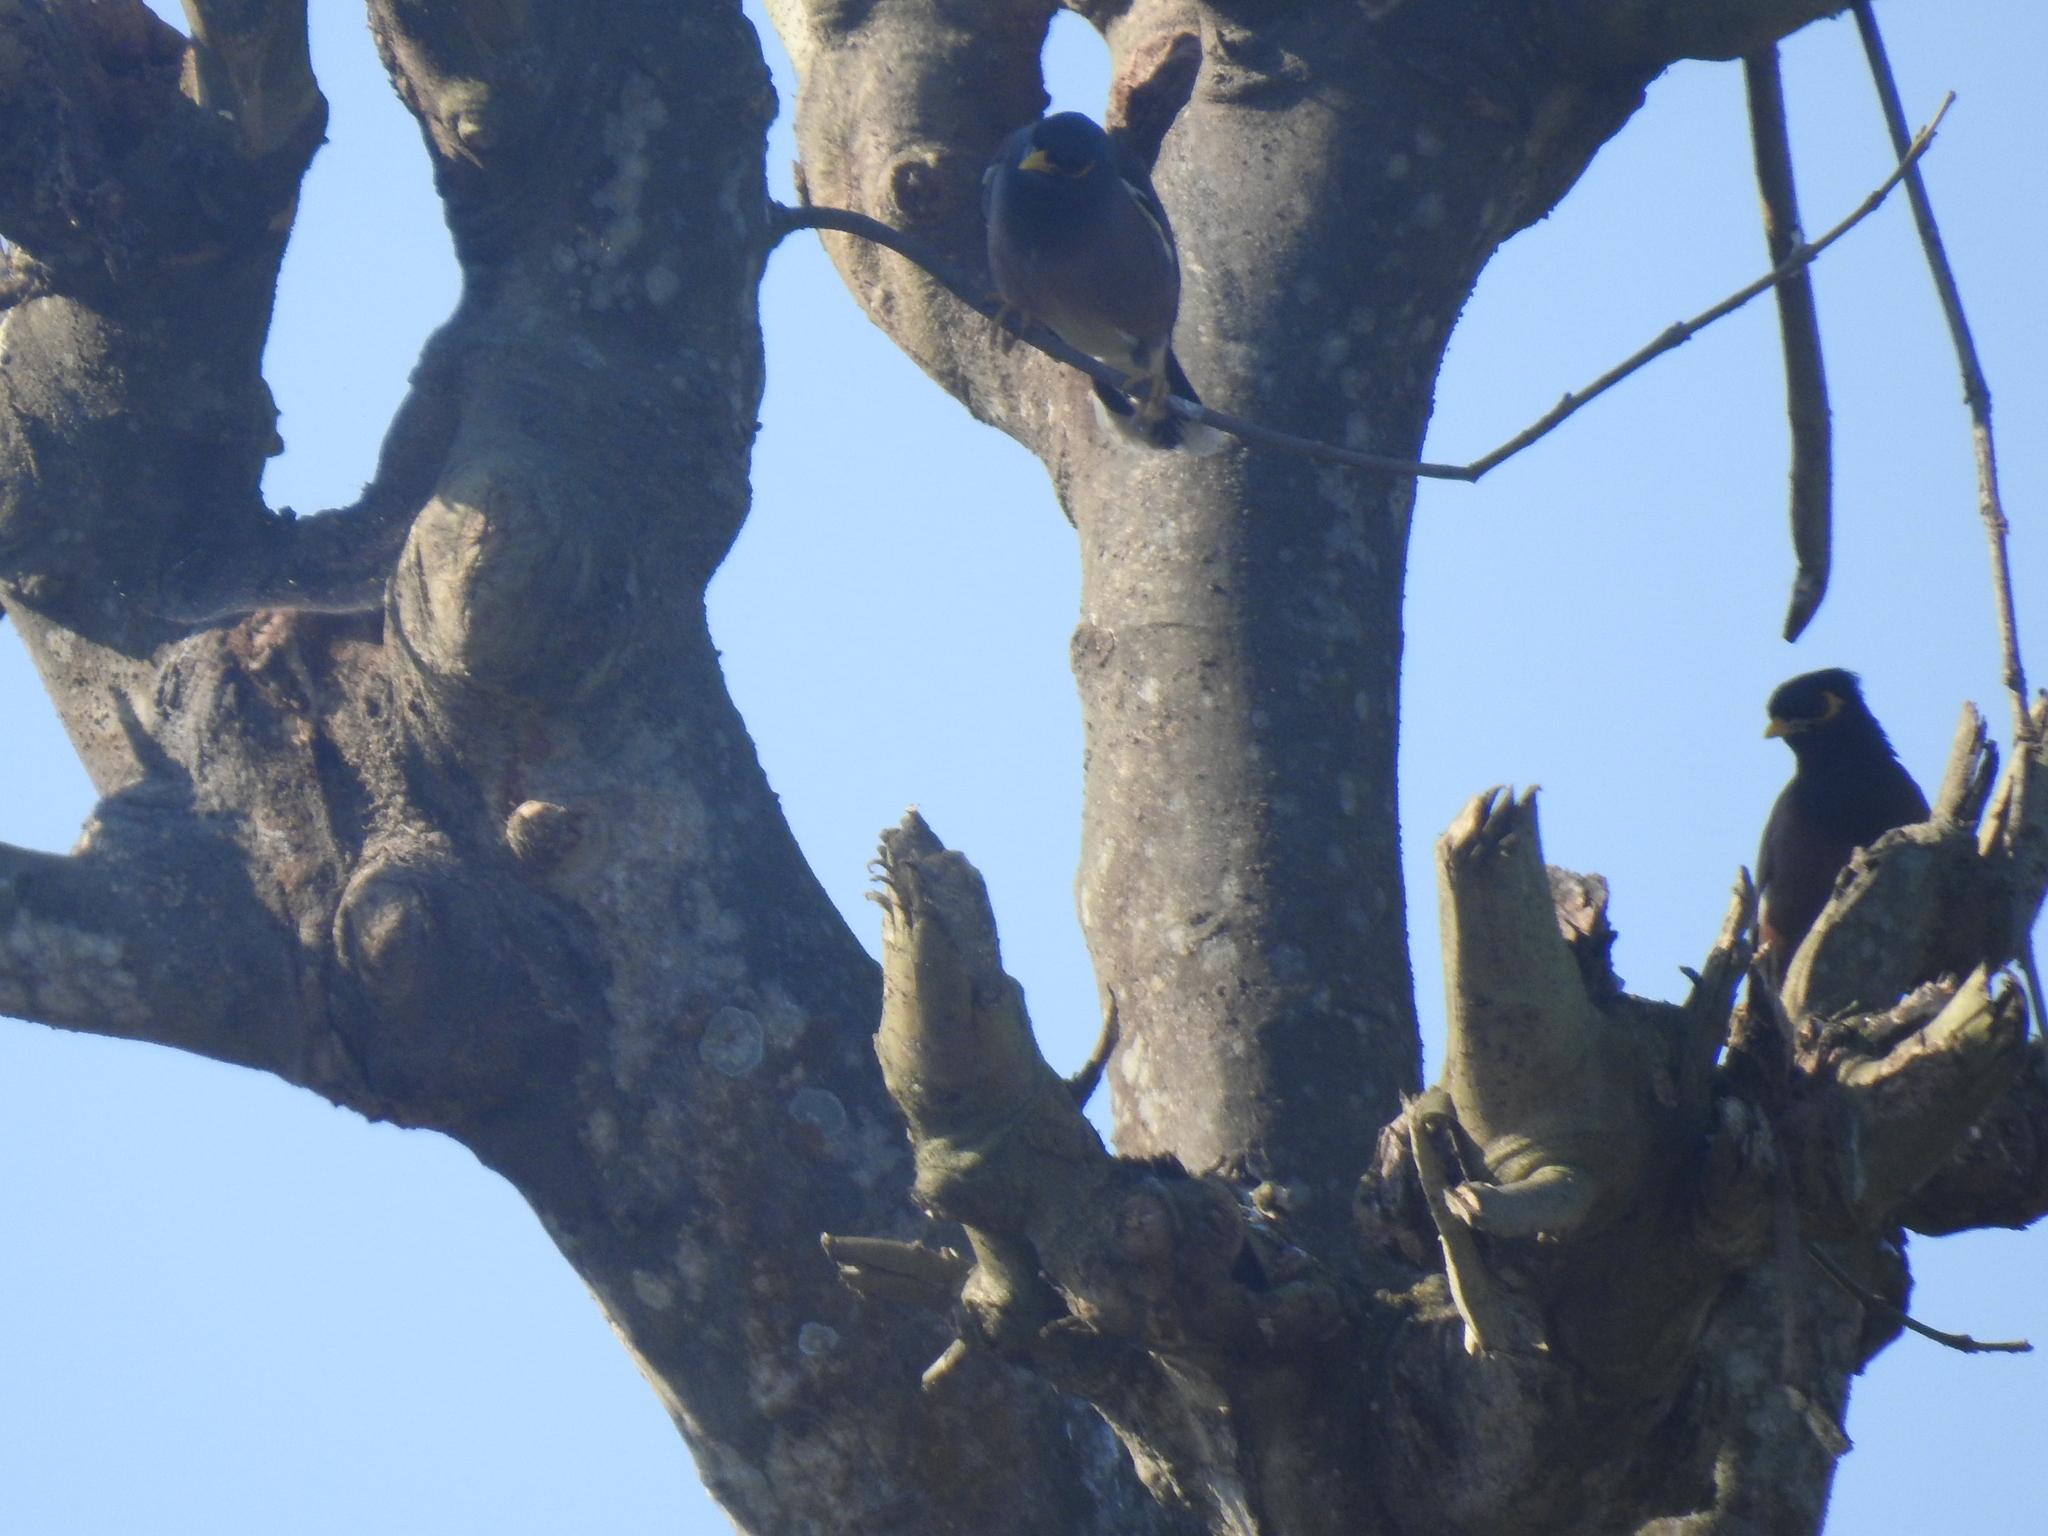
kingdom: Animalia
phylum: Chordata
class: Aves
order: Passeriformes
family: Sturnidae
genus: Acridotheres
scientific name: Acridotheres tristis
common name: Common myna
